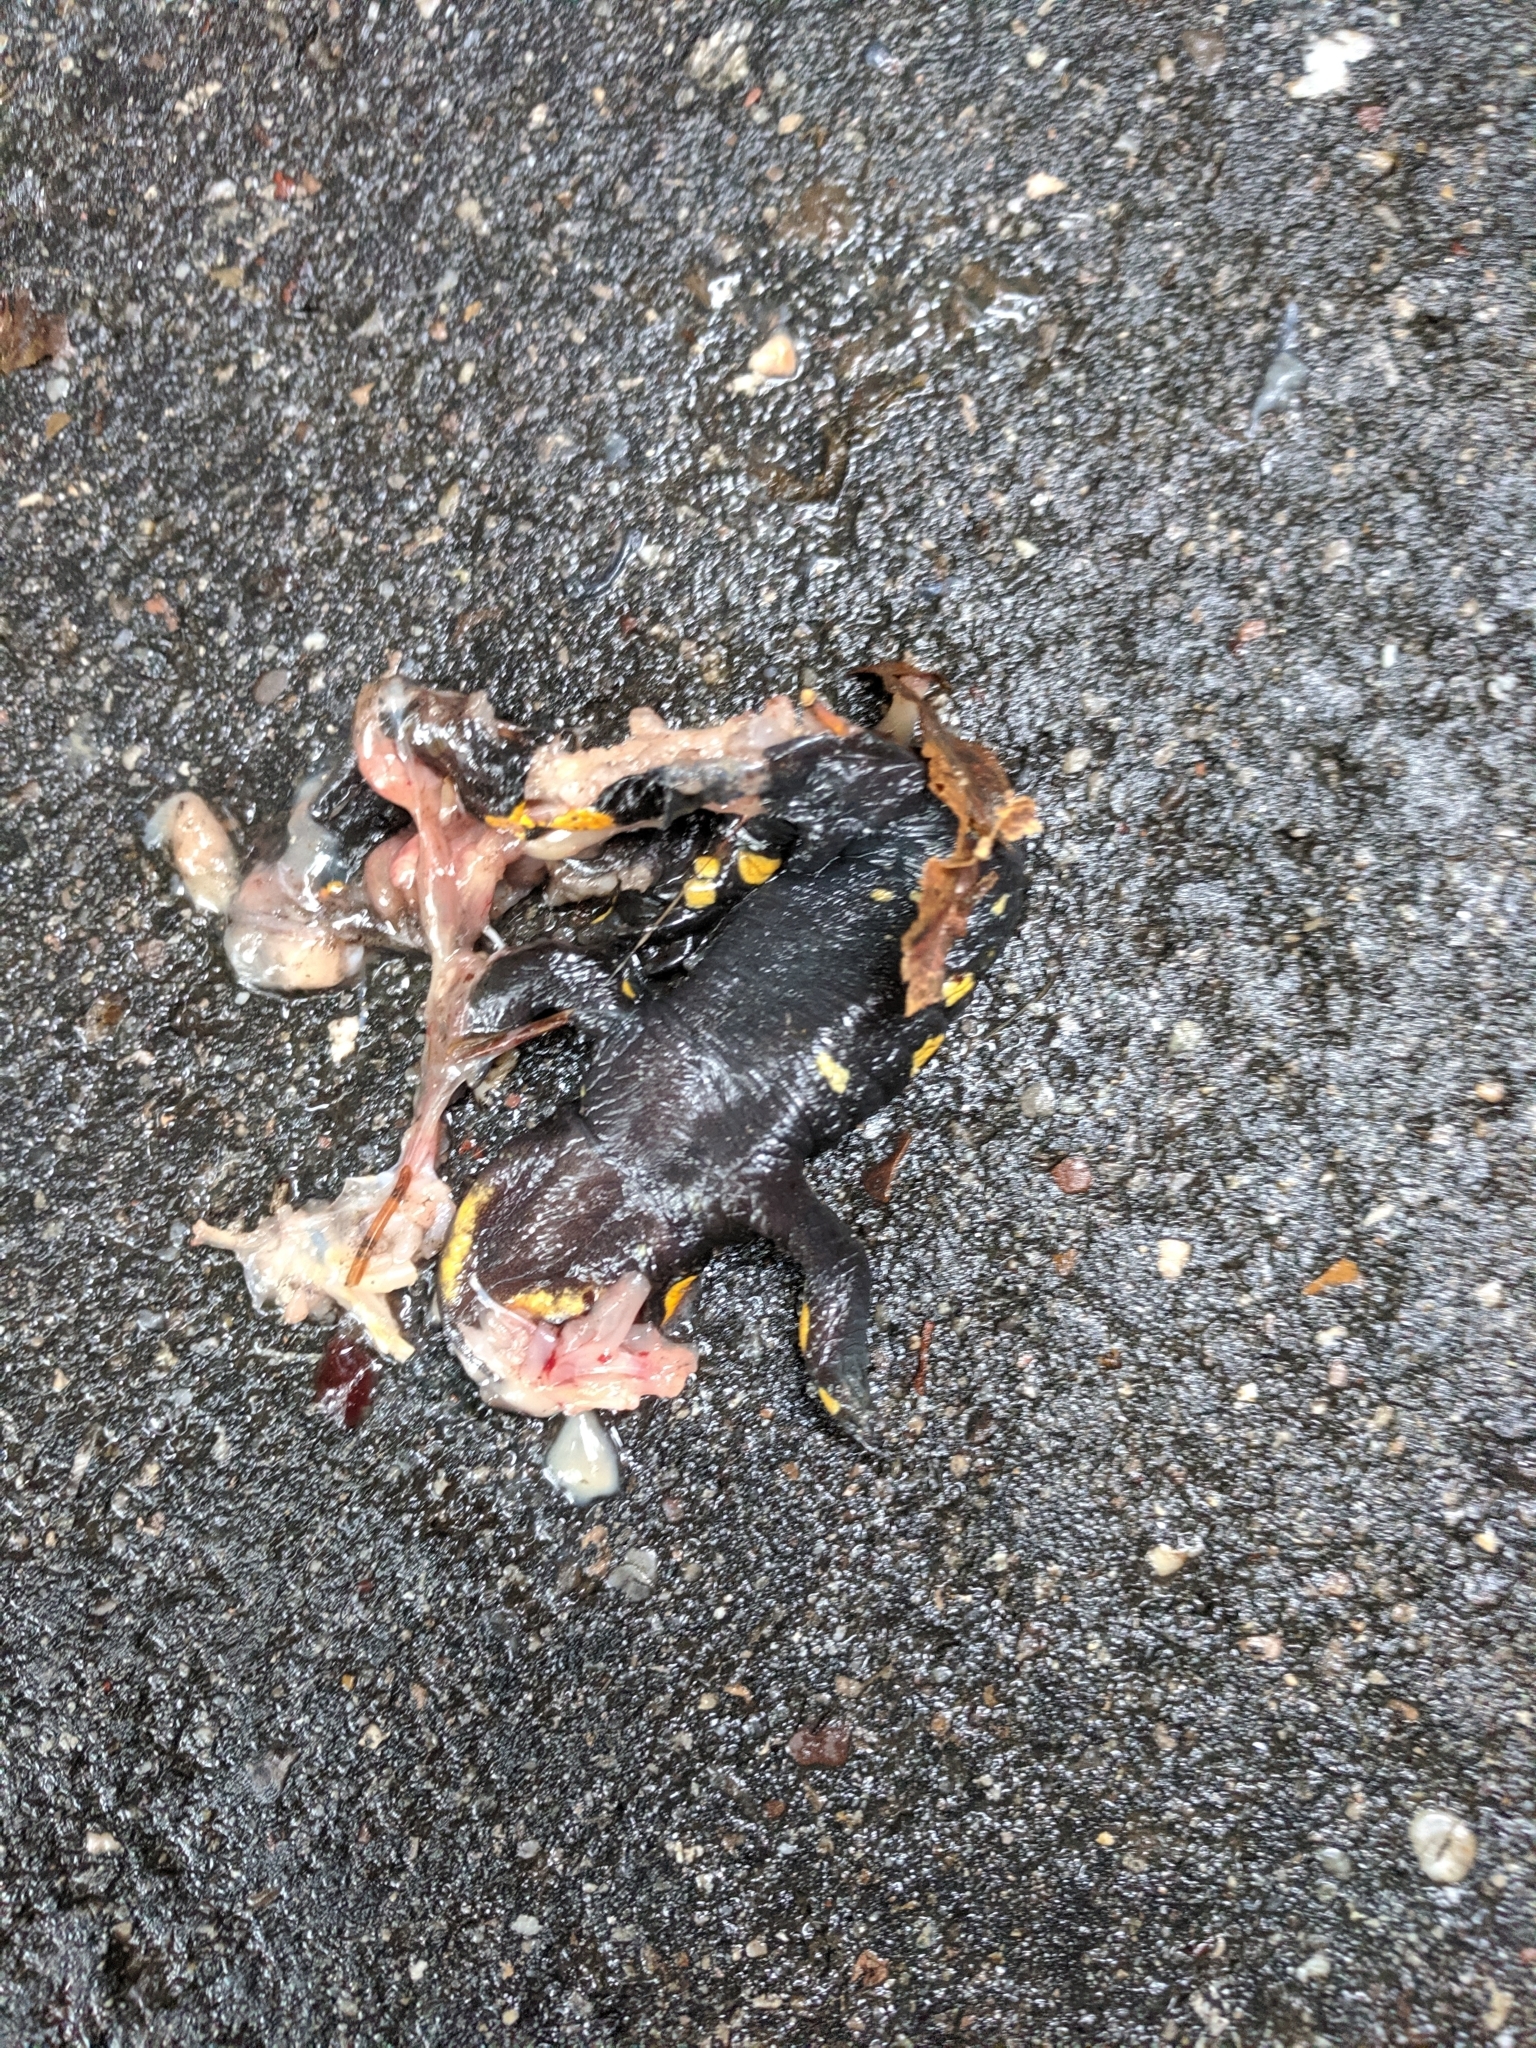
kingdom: Animalia
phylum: Chordata
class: Amphibia
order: Caudata
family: Salamandridae
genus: Salamandra
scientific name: Salamandra salamandra
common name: Fire salamander
